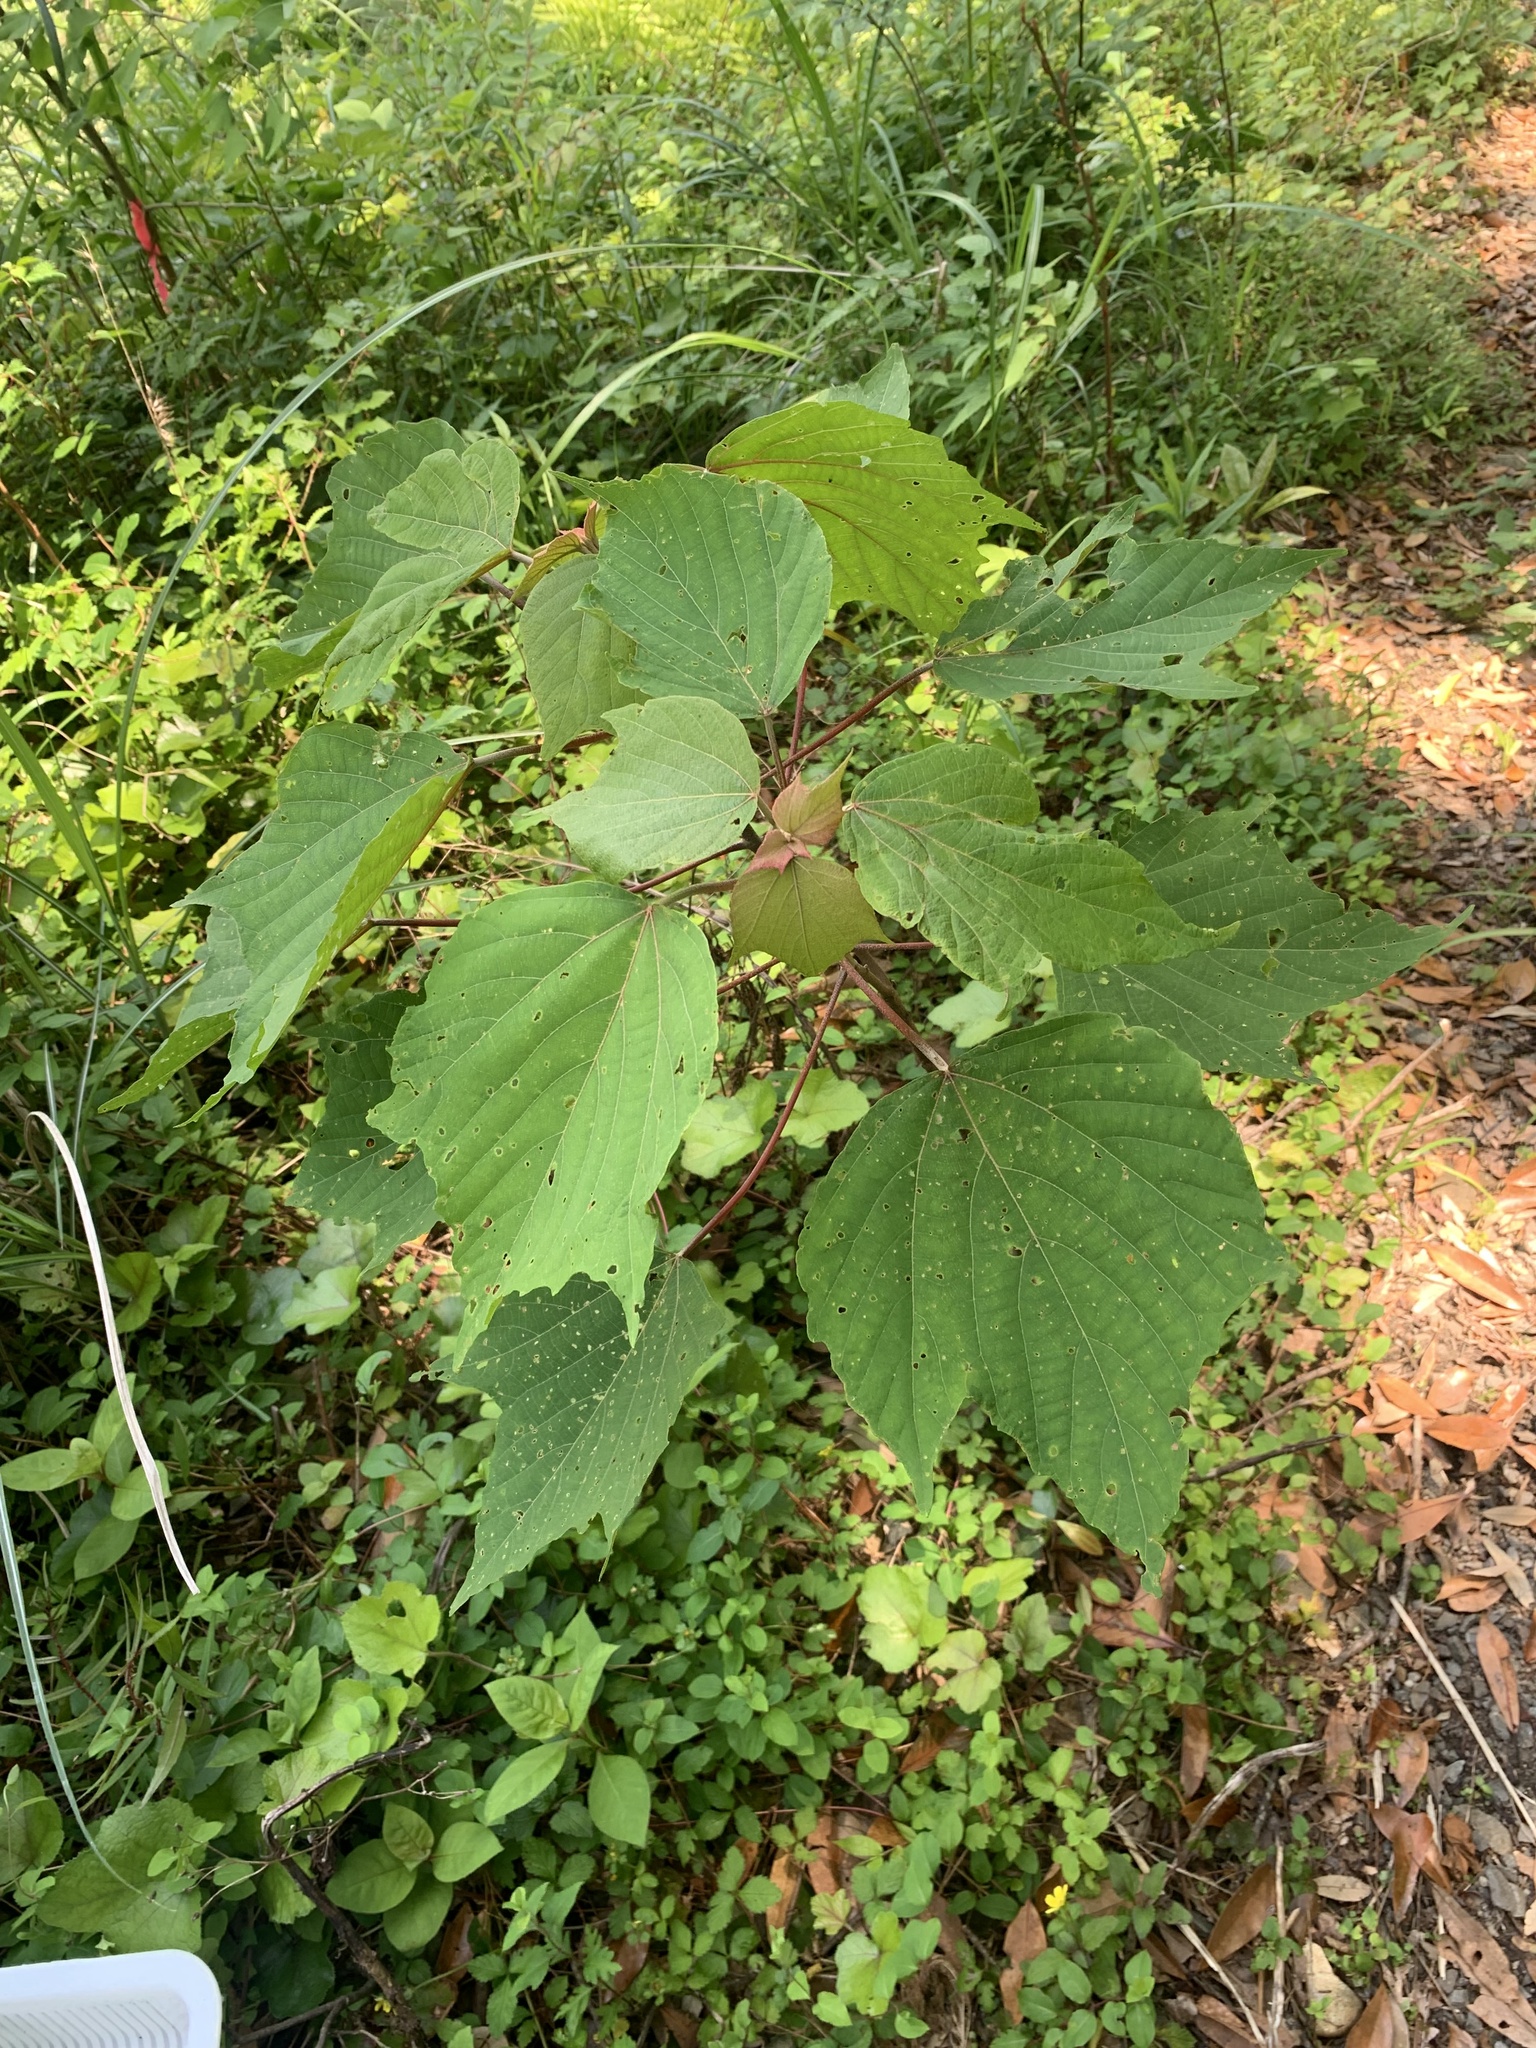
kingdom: Plantae
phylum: Tracheophyta
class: Magnoliopsida
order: Malpighiales
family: Euphorbiaceae
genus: Mallotus
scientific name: Mallotus japonicus
